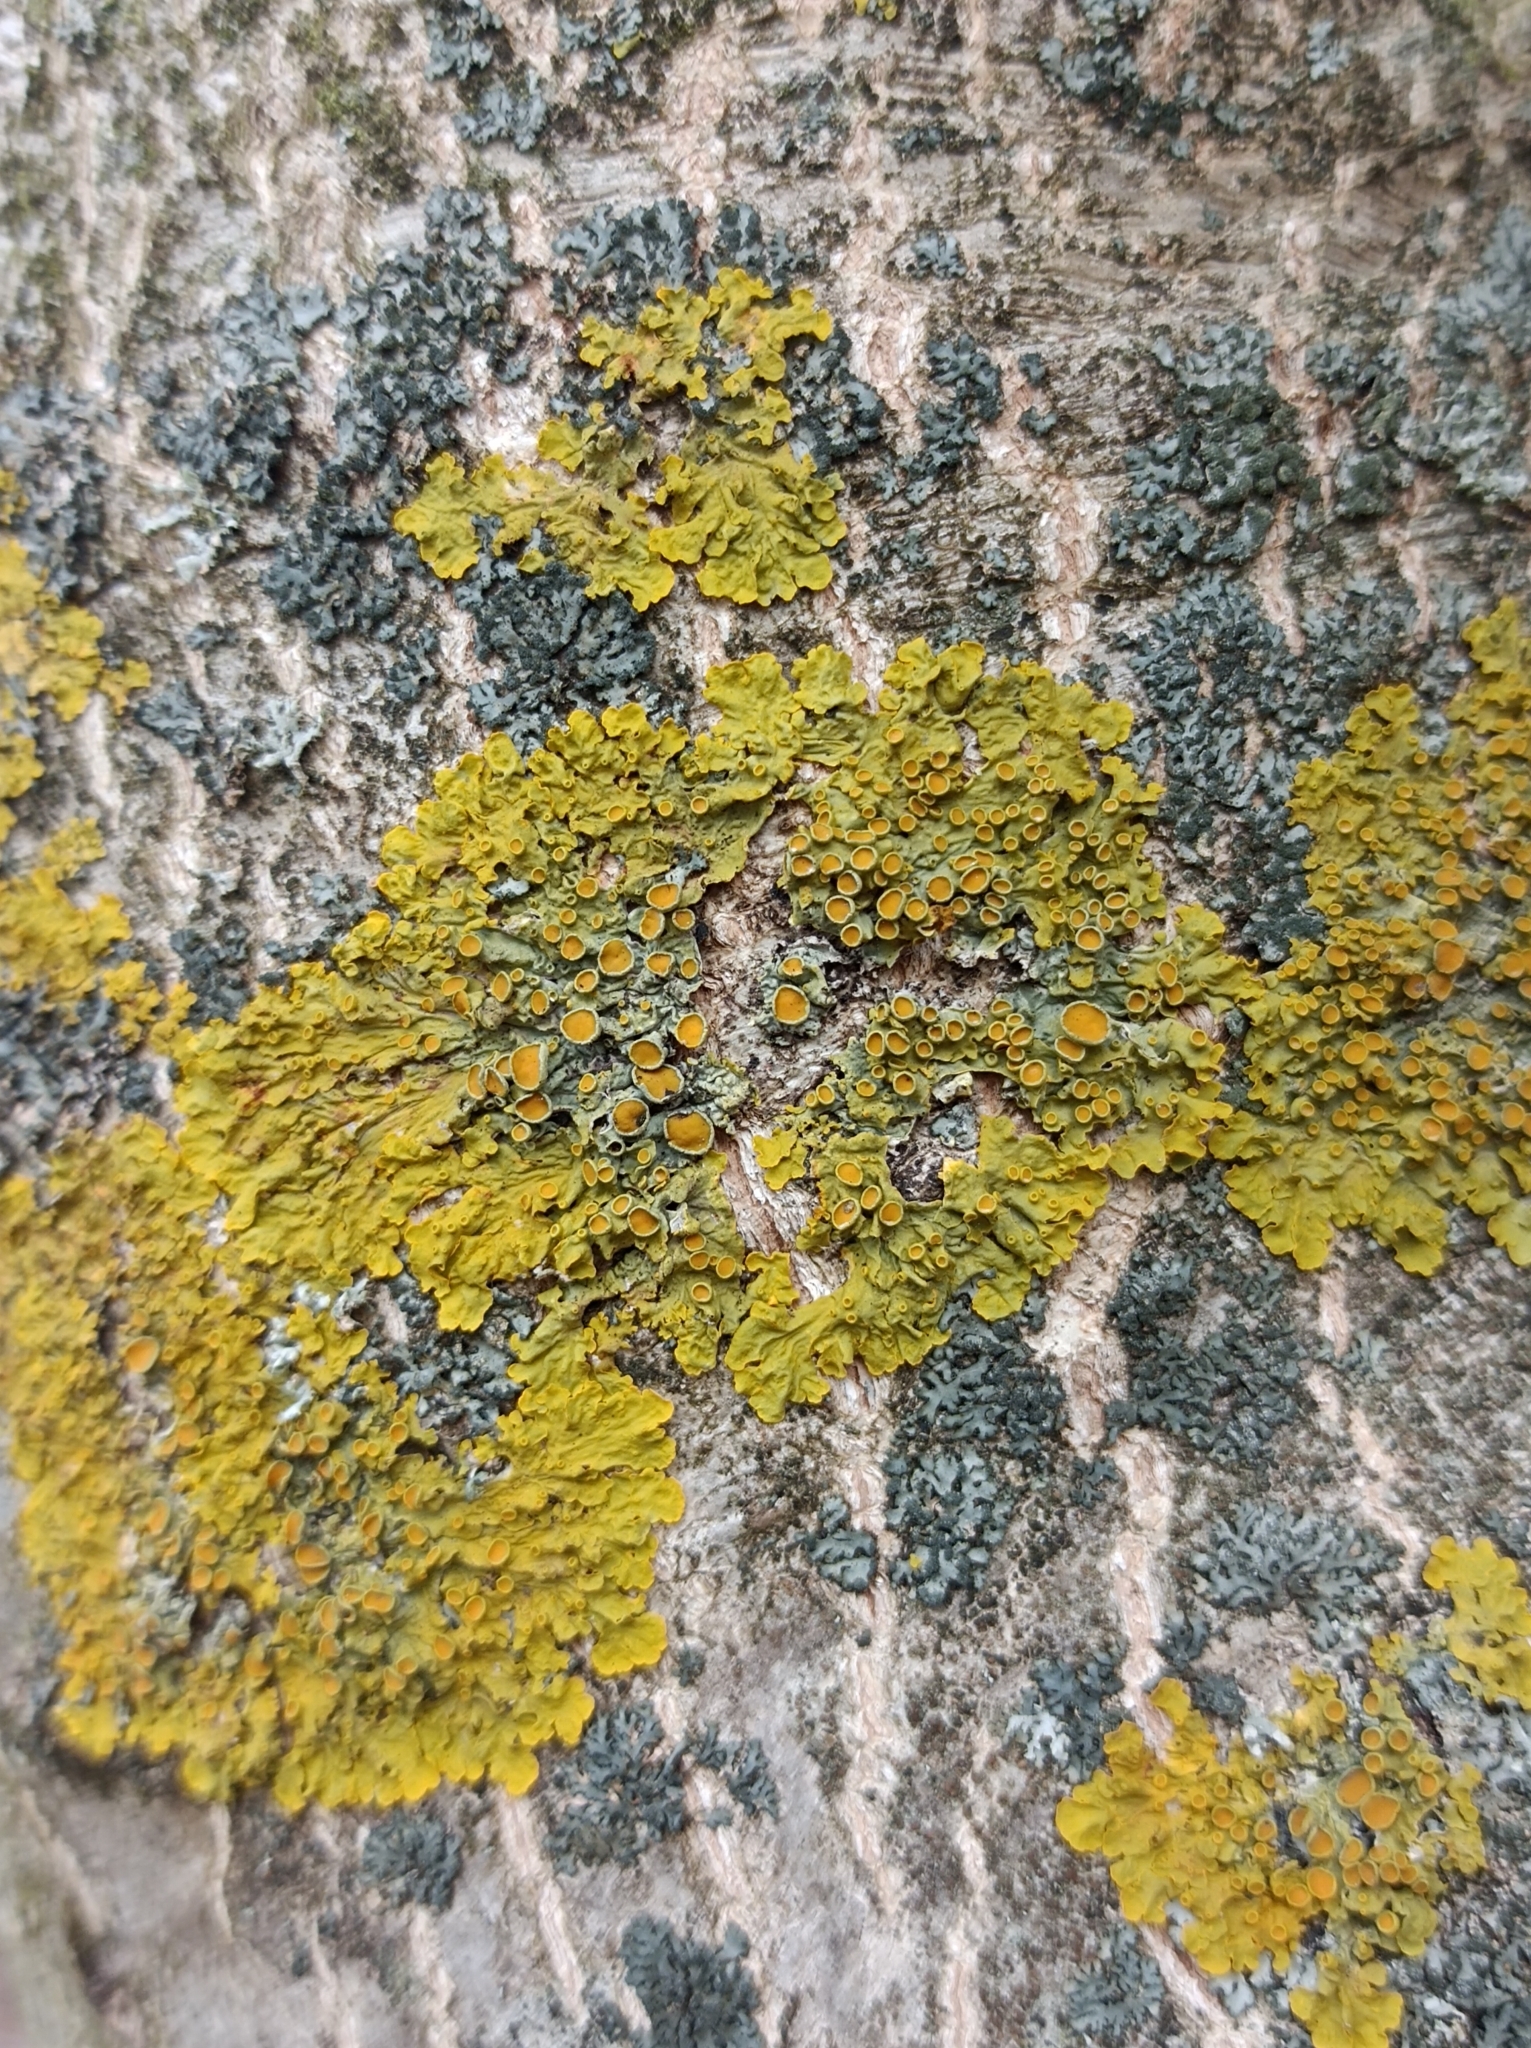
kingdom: Fungi
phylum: Ascomycota
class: Lecanoromycetes
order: Teloschistales
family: Teloschistaceae
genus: Xanthoria
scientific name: Xanthoria parietina
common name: Common orange lichen
